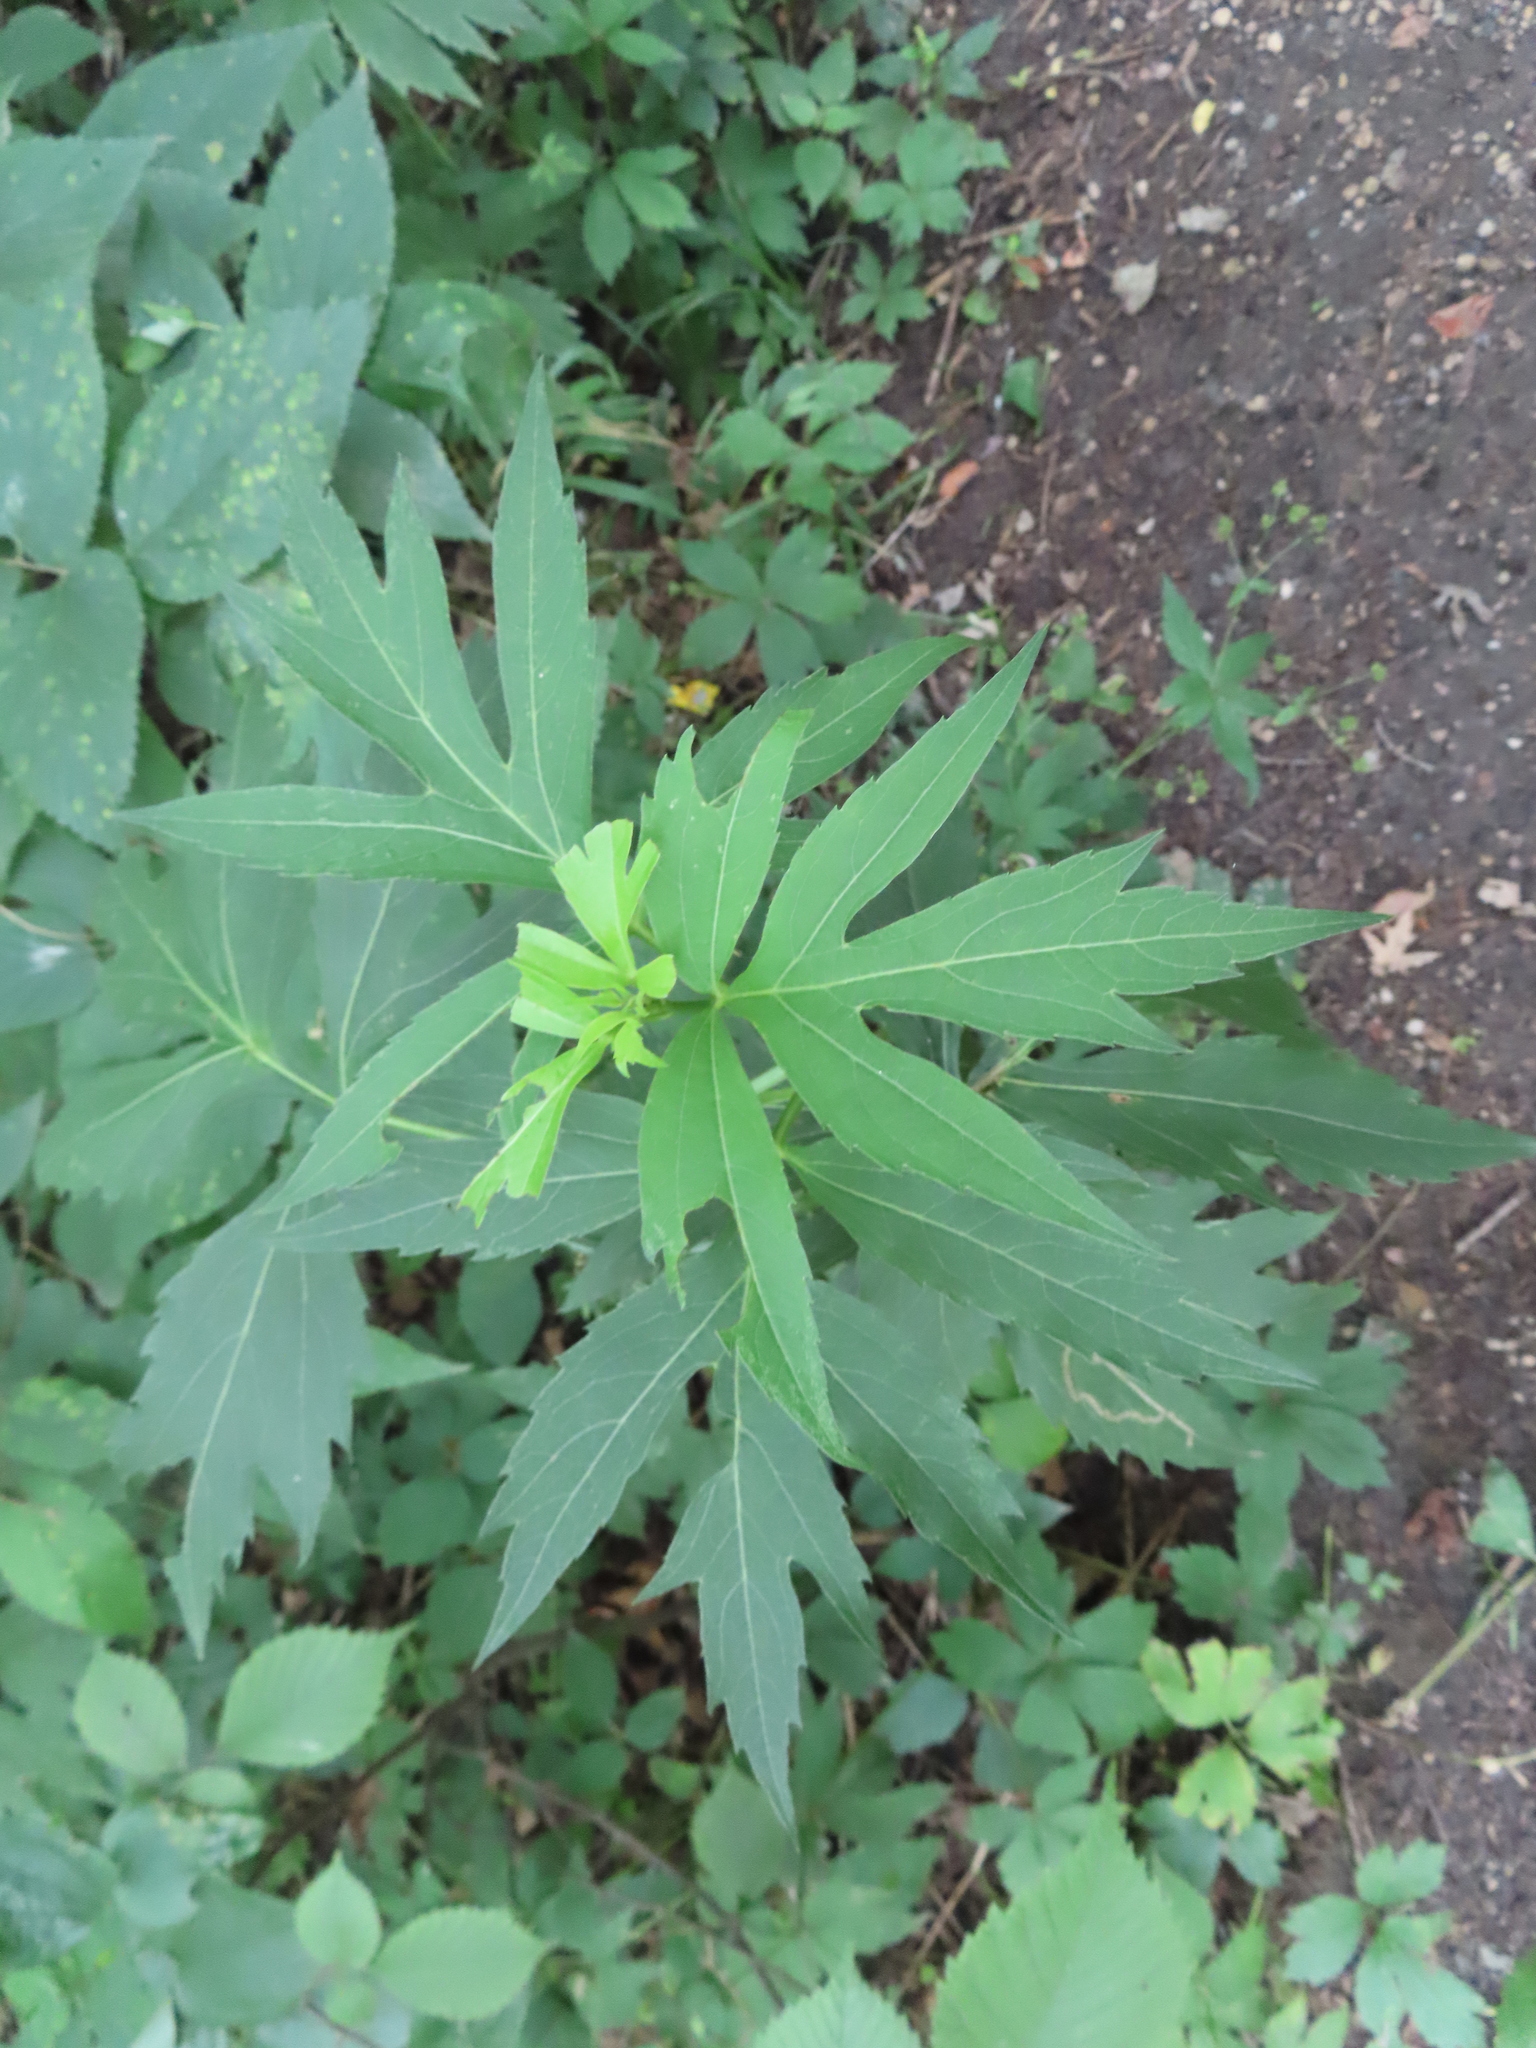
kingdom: Plantae
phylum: Tracheophyta
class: Magnoliopsida
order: Asterales
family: Asteraceae
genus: Rudbeckia
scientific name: Rudbeckia laciniata
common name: Coneflower
